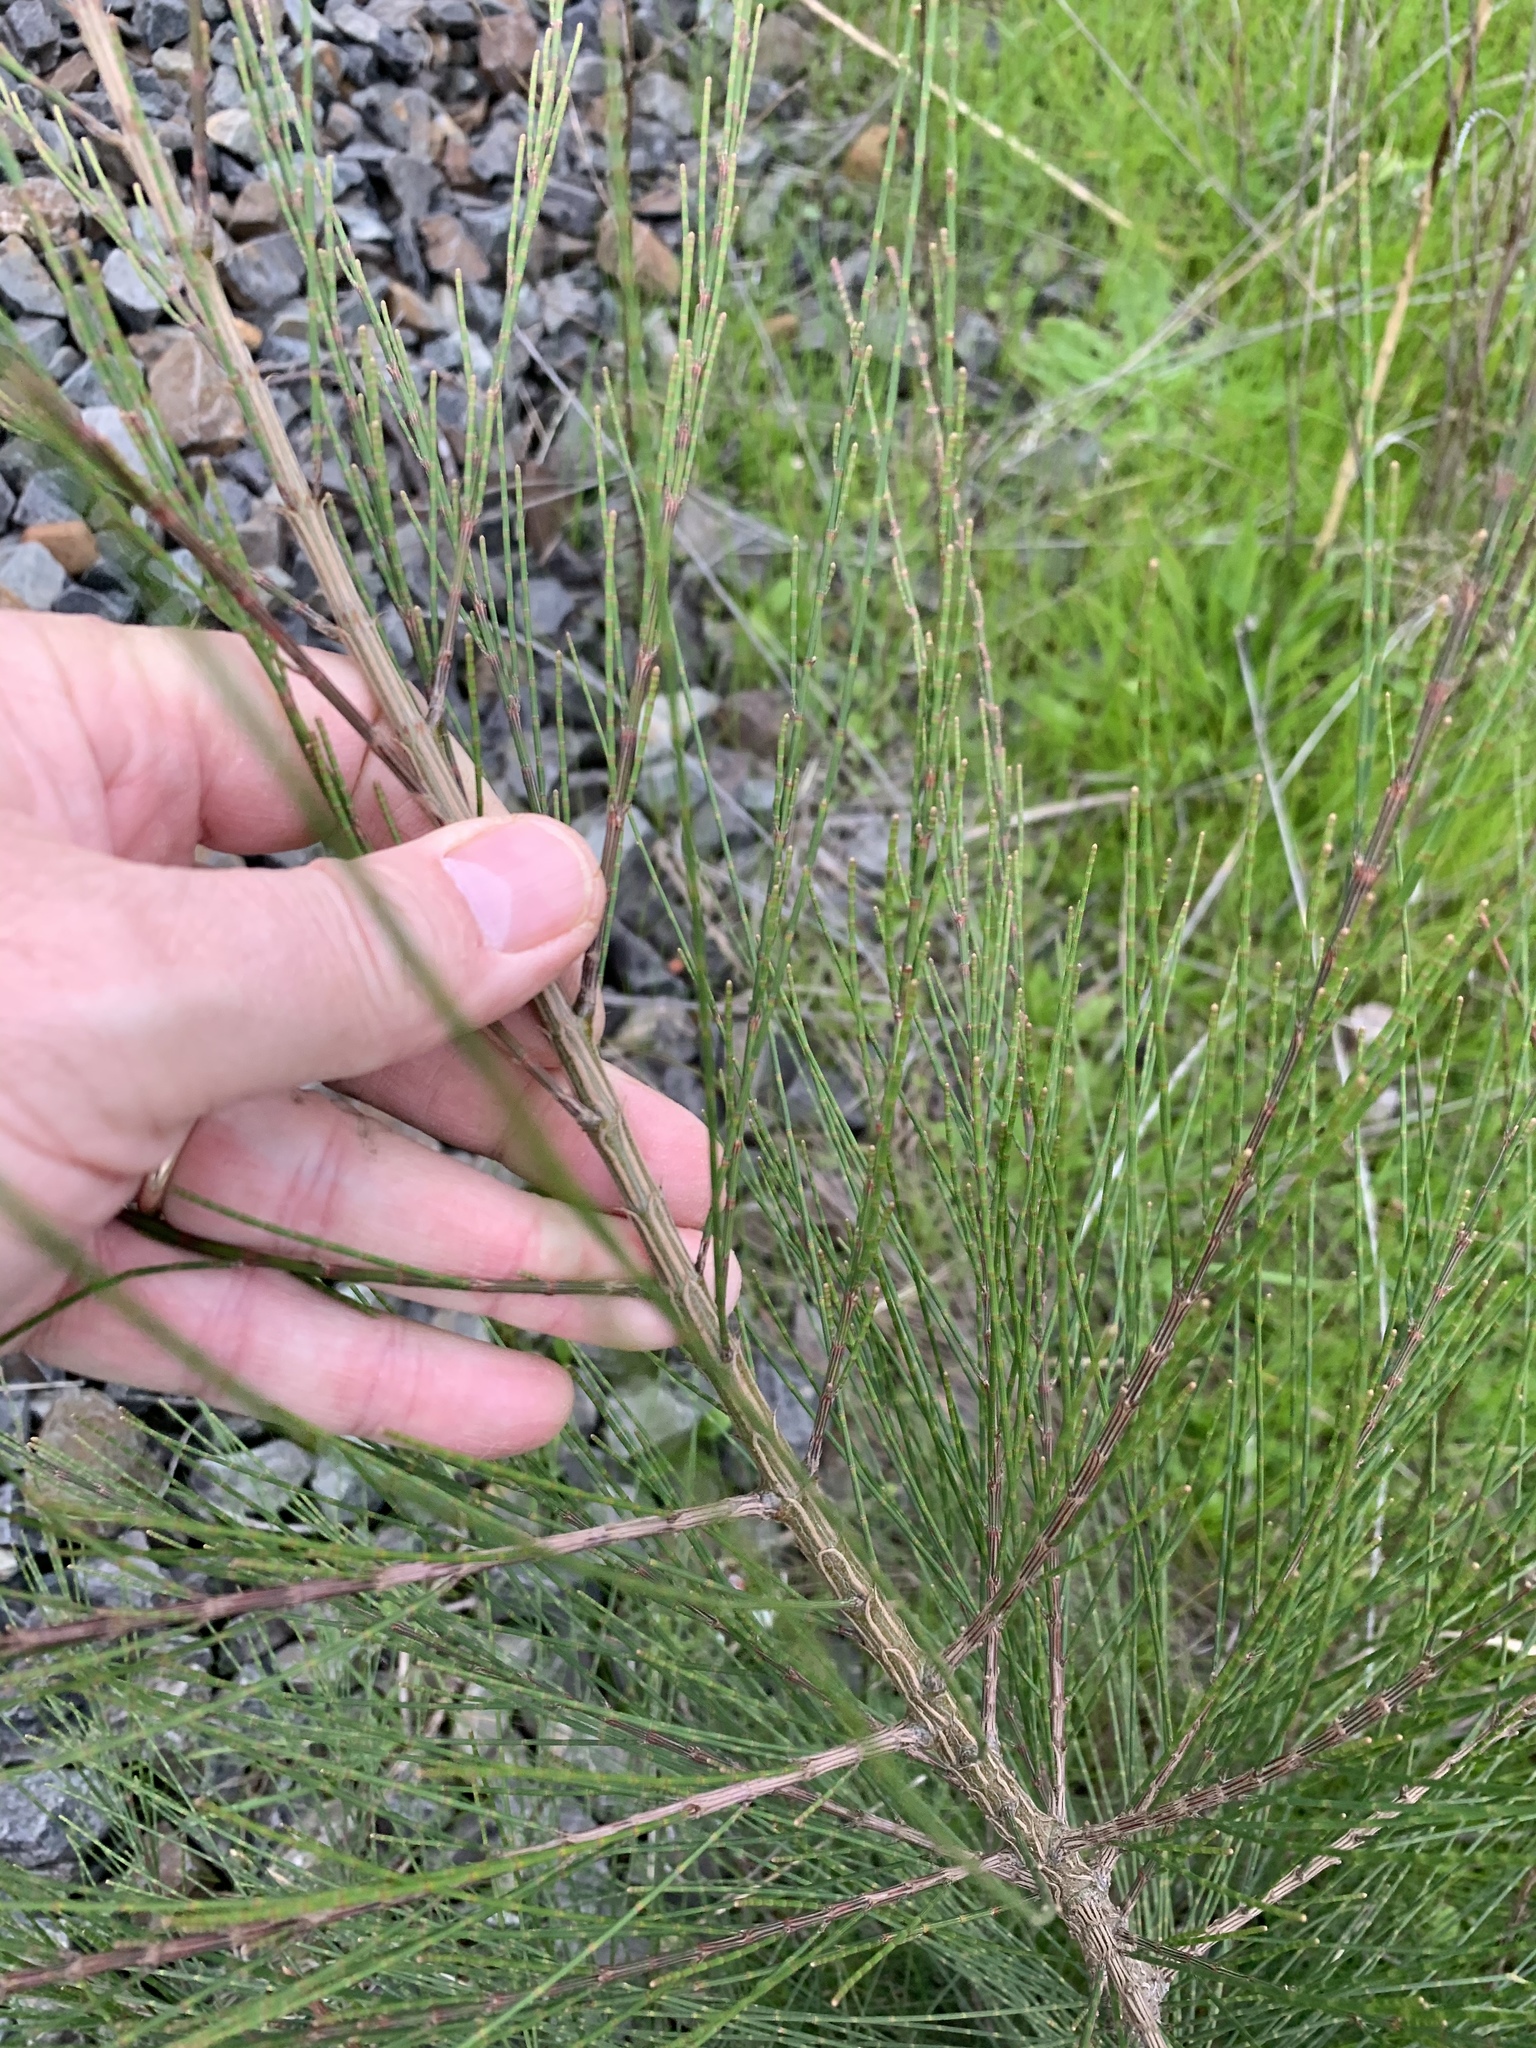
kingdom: Plantae
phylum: Tracheophyta
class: Magnoliopsida
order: Fagales
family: Casuarinaceae
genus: Casuarina
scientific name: Casuarina cunninghamiana
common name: River sheoak
